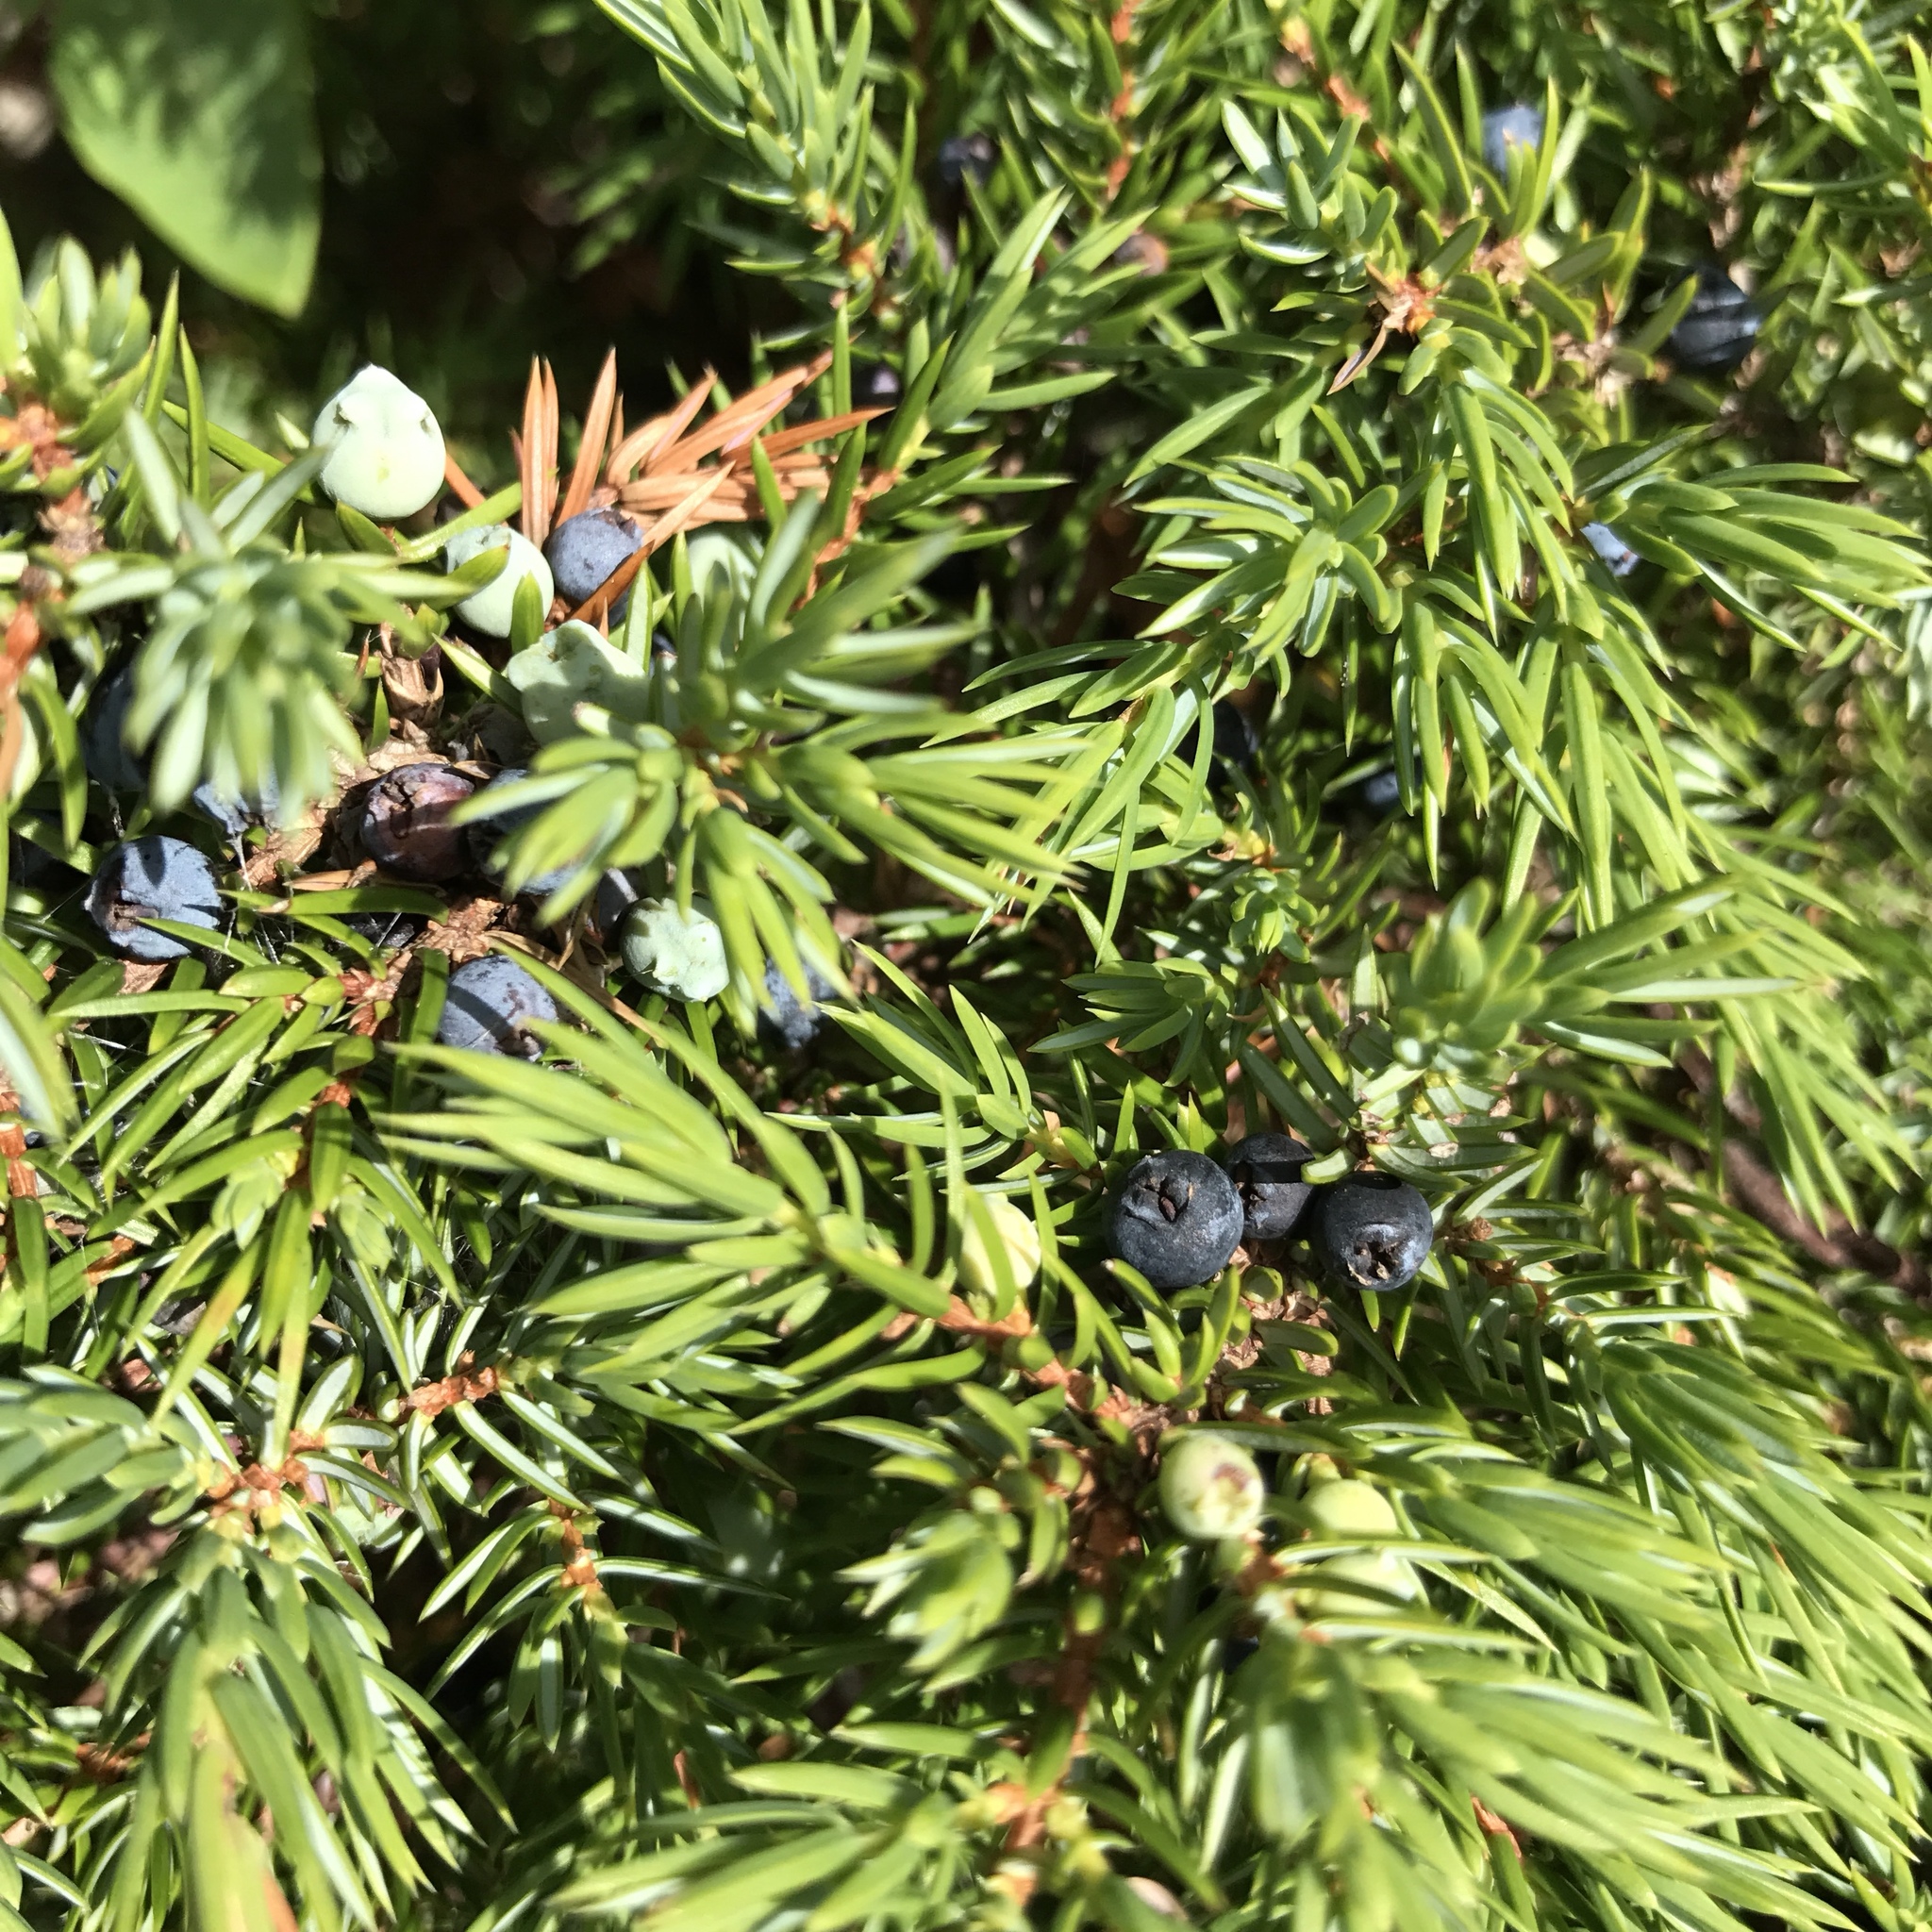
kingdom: Plantae
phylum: Tracheophyta
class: Pinopsida
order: Pinales
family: Cupressaceae
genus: Juniperus
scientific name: Juniperus communis
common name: Common juniper
